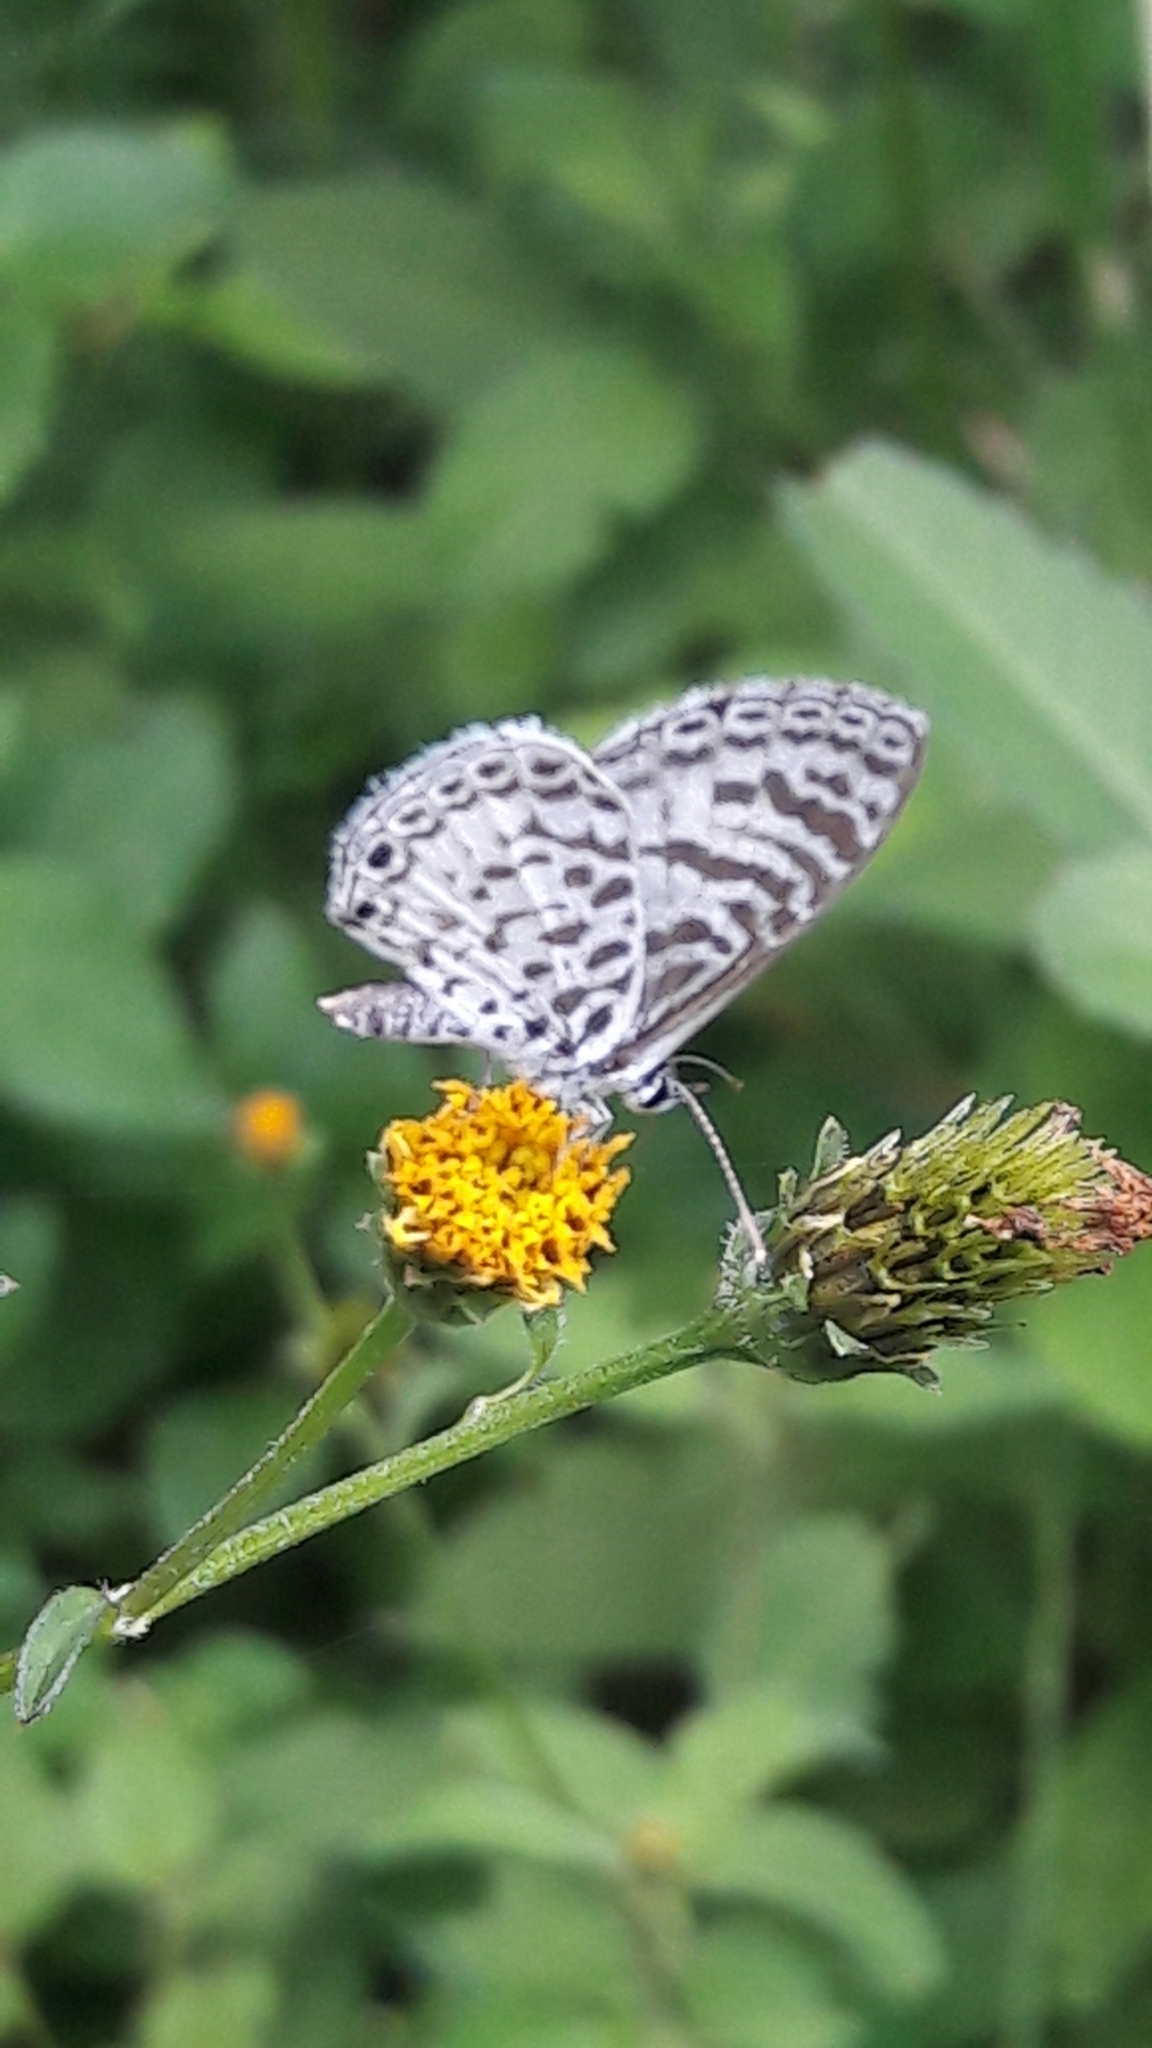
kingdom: Animalia
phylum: Arthropoda
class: Insecta
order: Lepidoptera
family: Lycaenidae
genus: Leptotes
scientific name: Leptotes cassius
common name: Cassius blue
